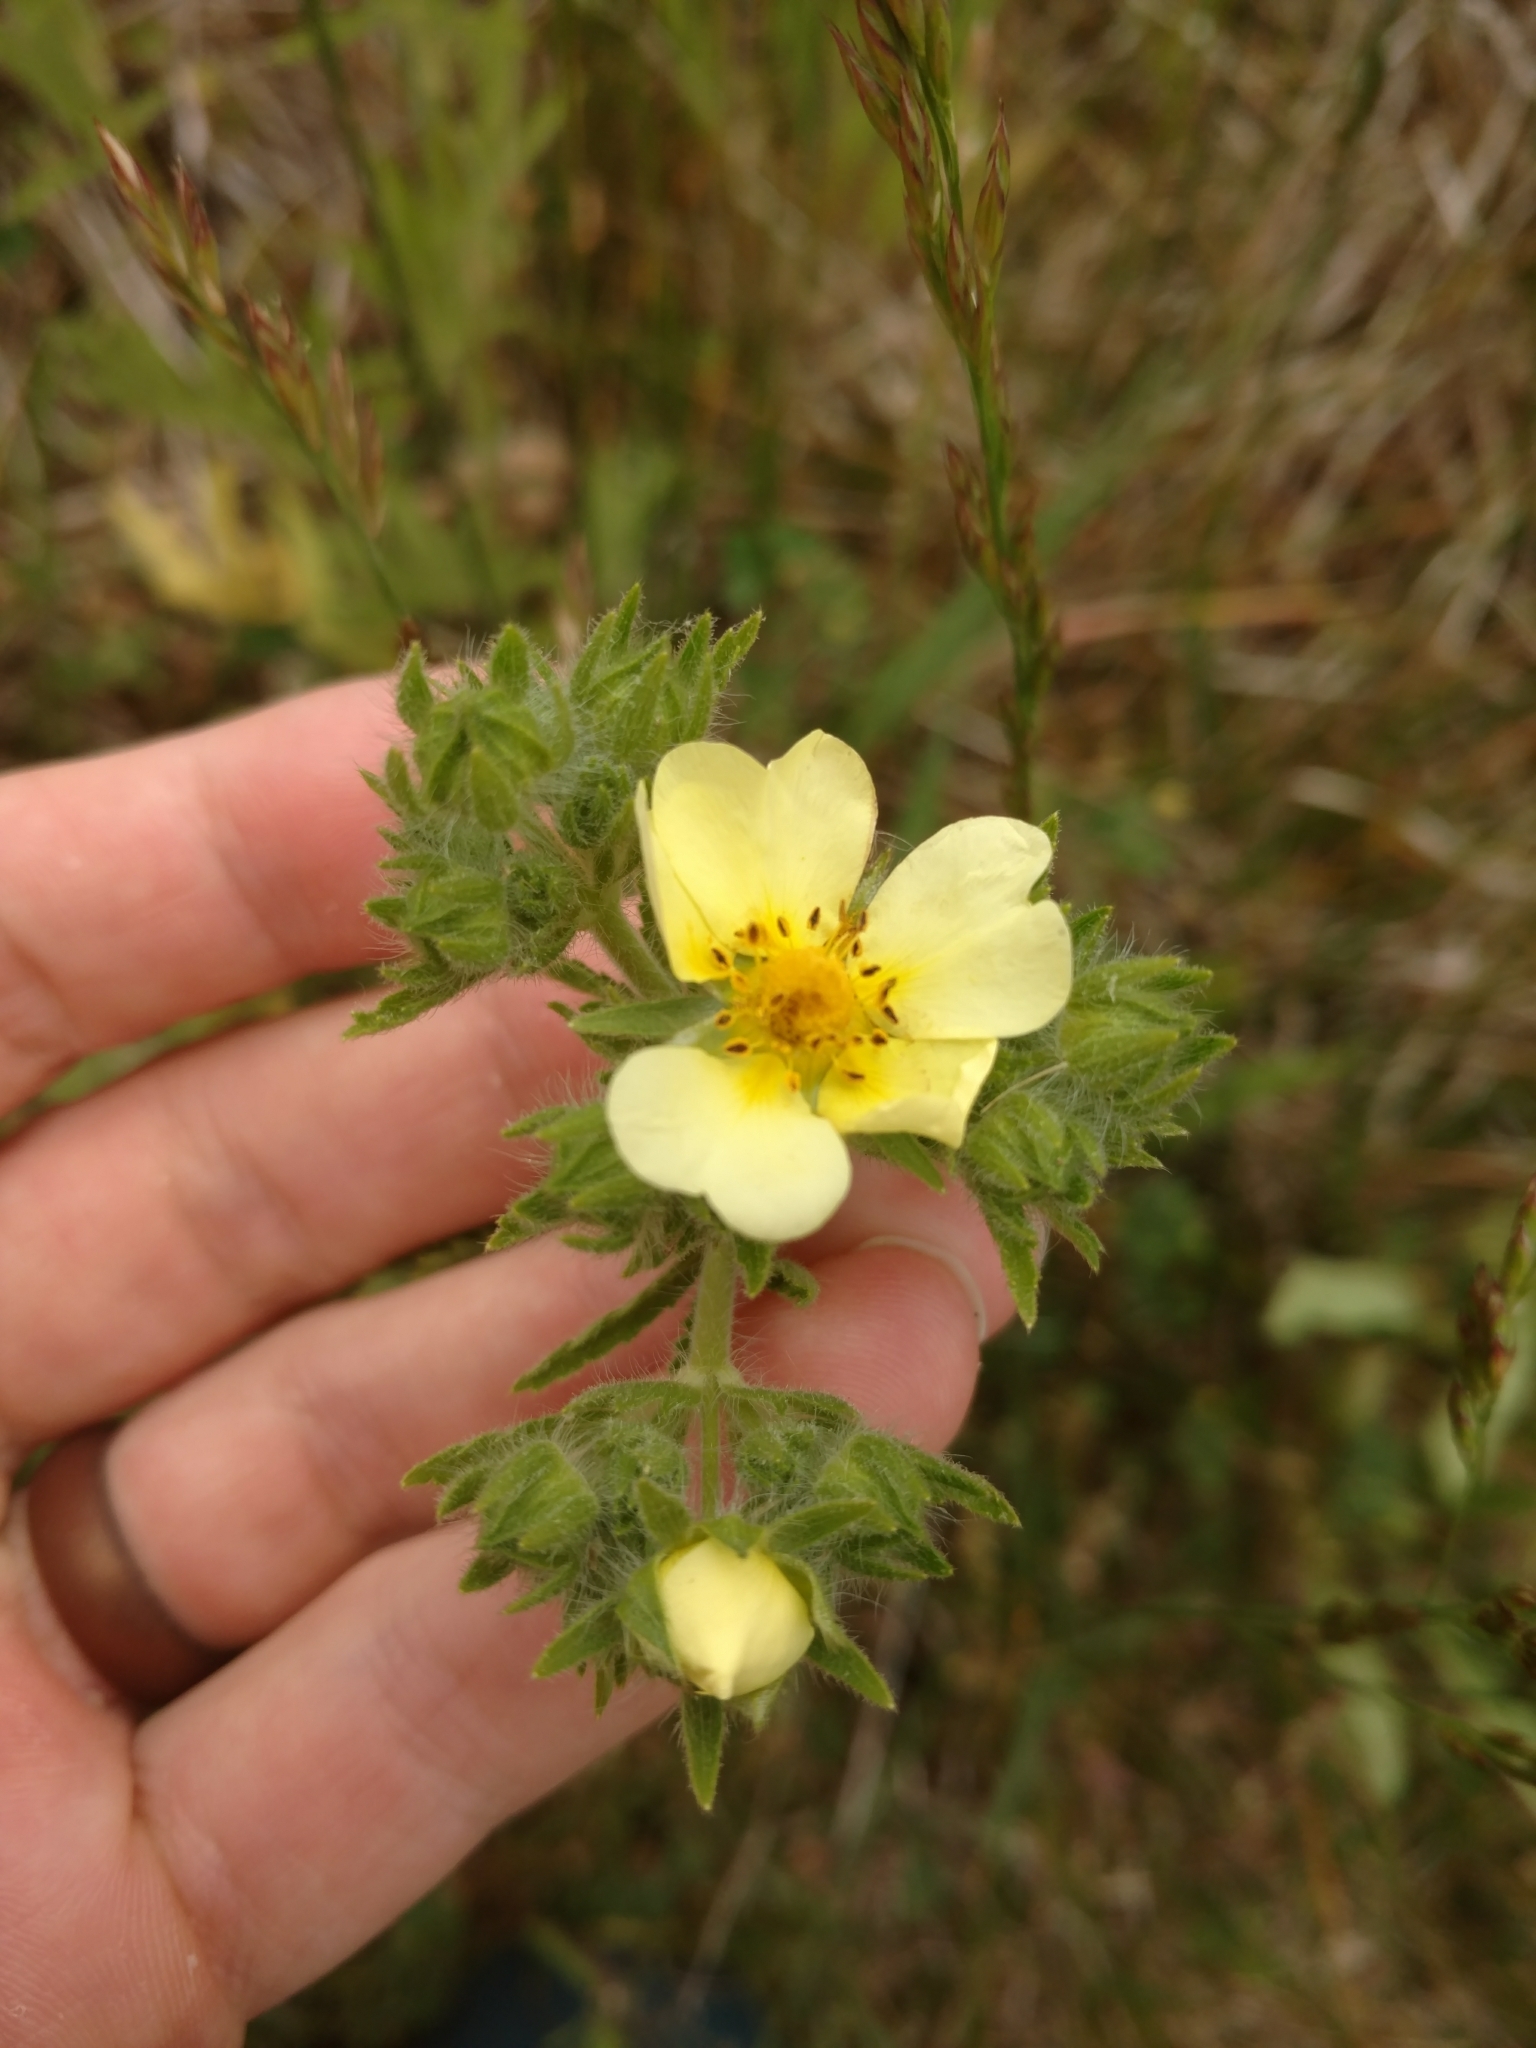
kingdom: Plantae
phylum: Tracheophyta
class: Magnoliopsida
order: Rosales
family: Rosaceae
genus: Potentilla
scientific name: Potentilla recta
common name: Sulphur cinquefoil
